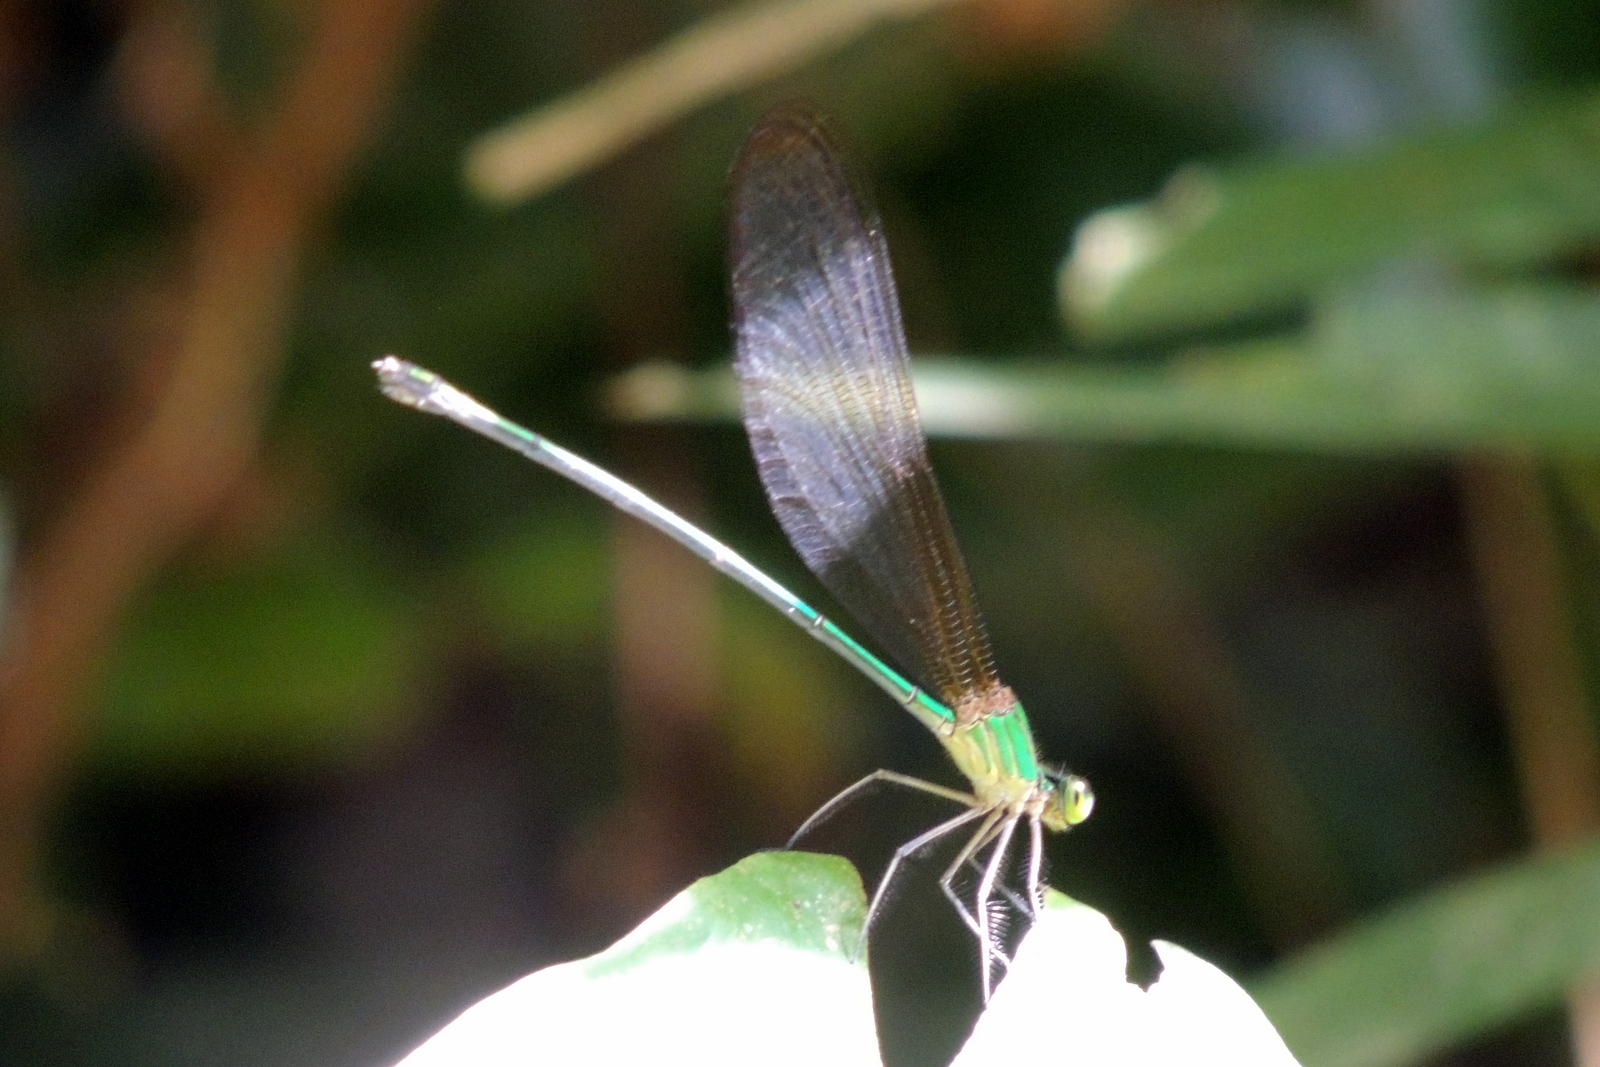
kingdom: Animalia
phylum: Arthropoda
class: Insecta
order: Odonata
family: Calopterygidae
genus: Vestalis
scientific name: Vestalis gracilis
